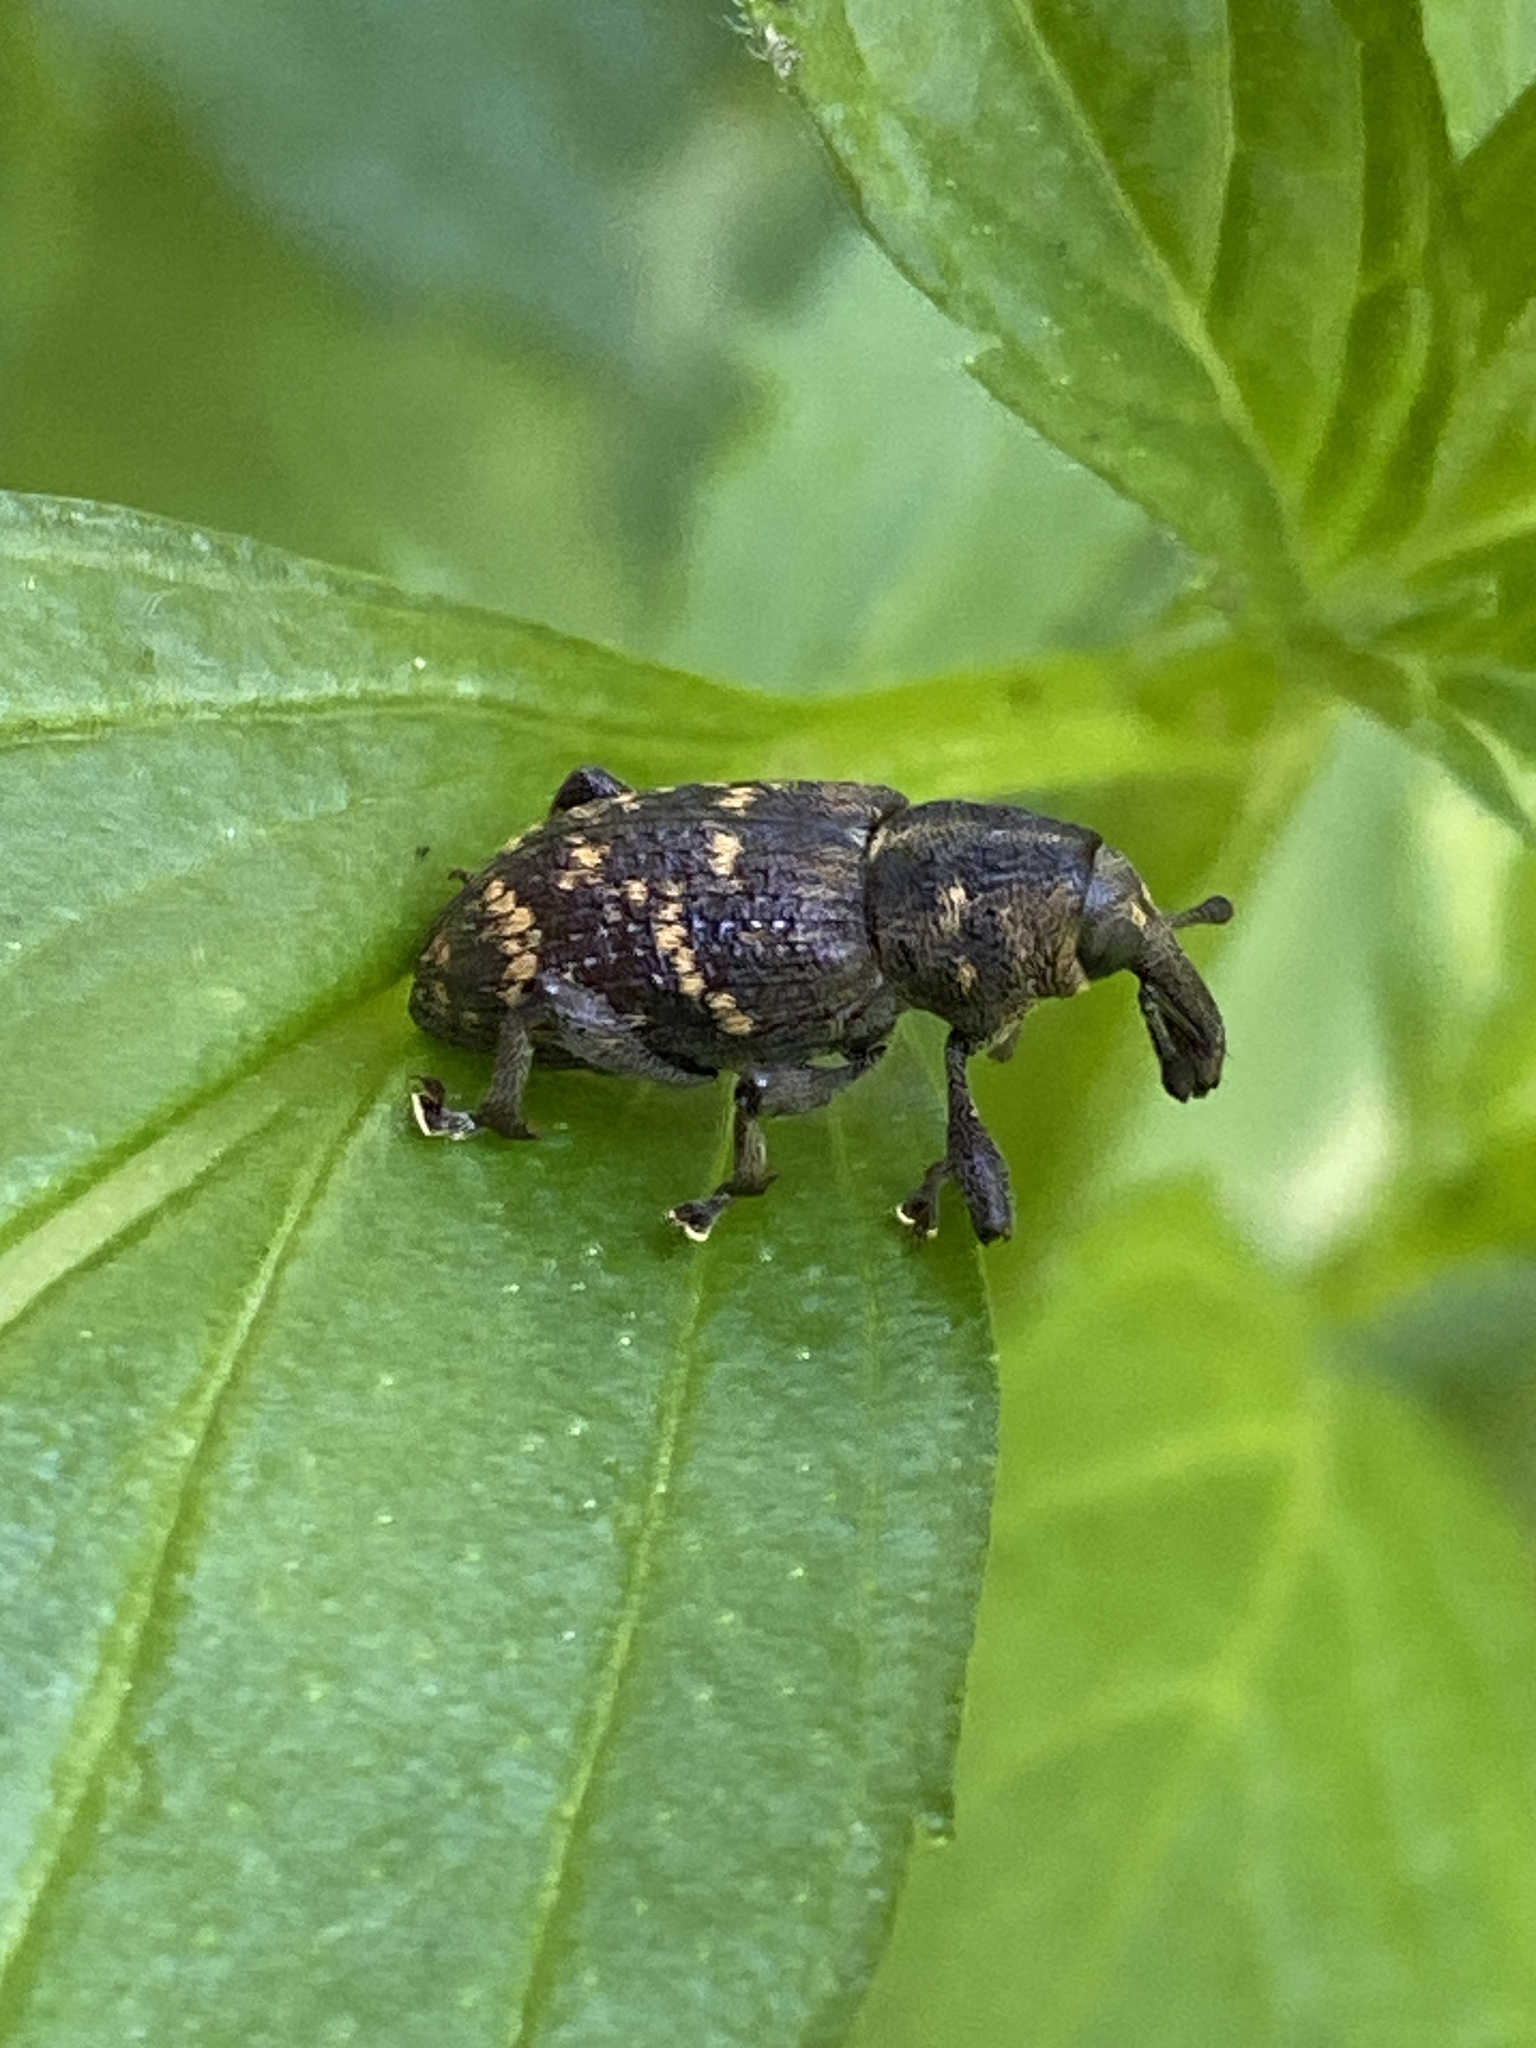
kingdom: Animalia
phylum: Arthropoda
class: Insecta
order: Coleoptera
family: Curculionidae
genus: Hylobius
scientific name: Hylobius abietis
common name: Large pine weevil
